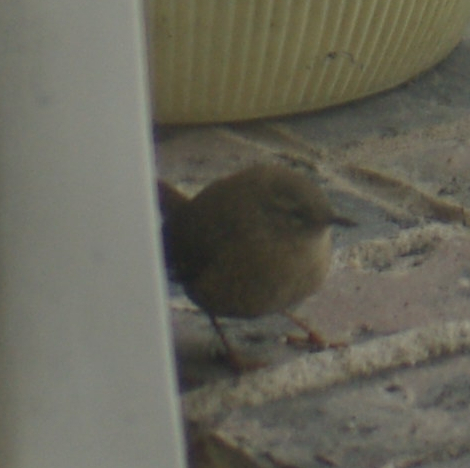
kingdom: Animalia
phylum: Chordata
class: Aves
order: Passeriformes
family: Troglodytidae
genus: Troglodytes
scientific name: Troglodytes hiemalis
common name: Winter wren
